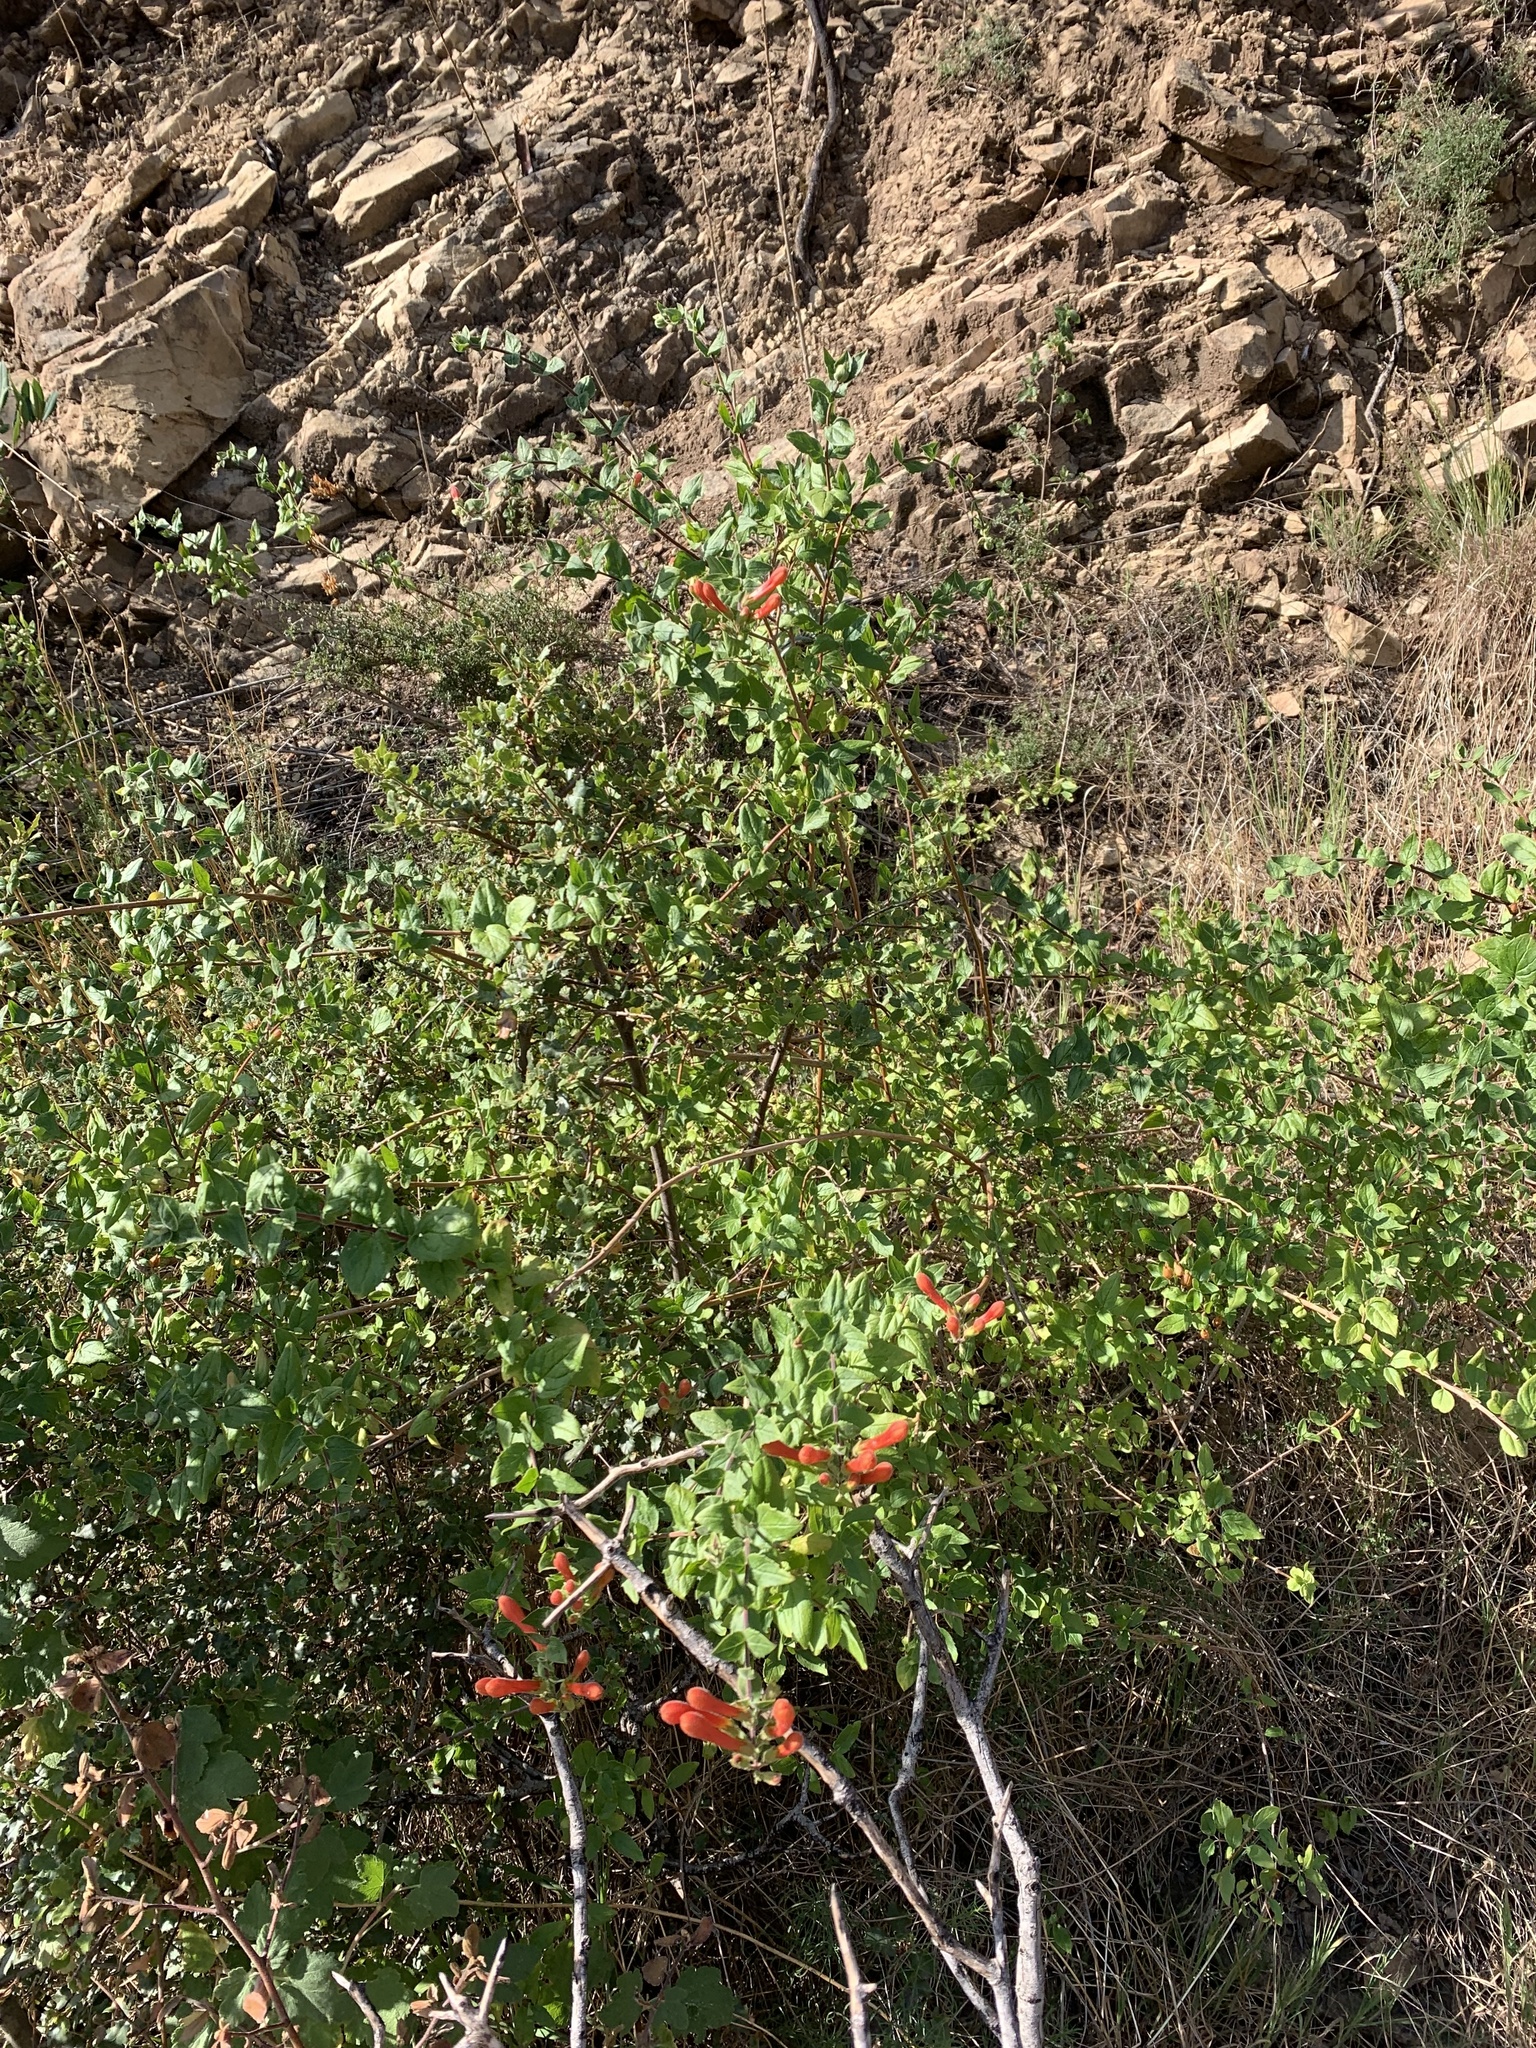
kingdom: Plantae
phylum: Tracheophyta
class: Magnoliopsida
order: Lamiales
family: Plantaginaceae
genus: Keckiella
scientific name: Keckiella cordifolia
